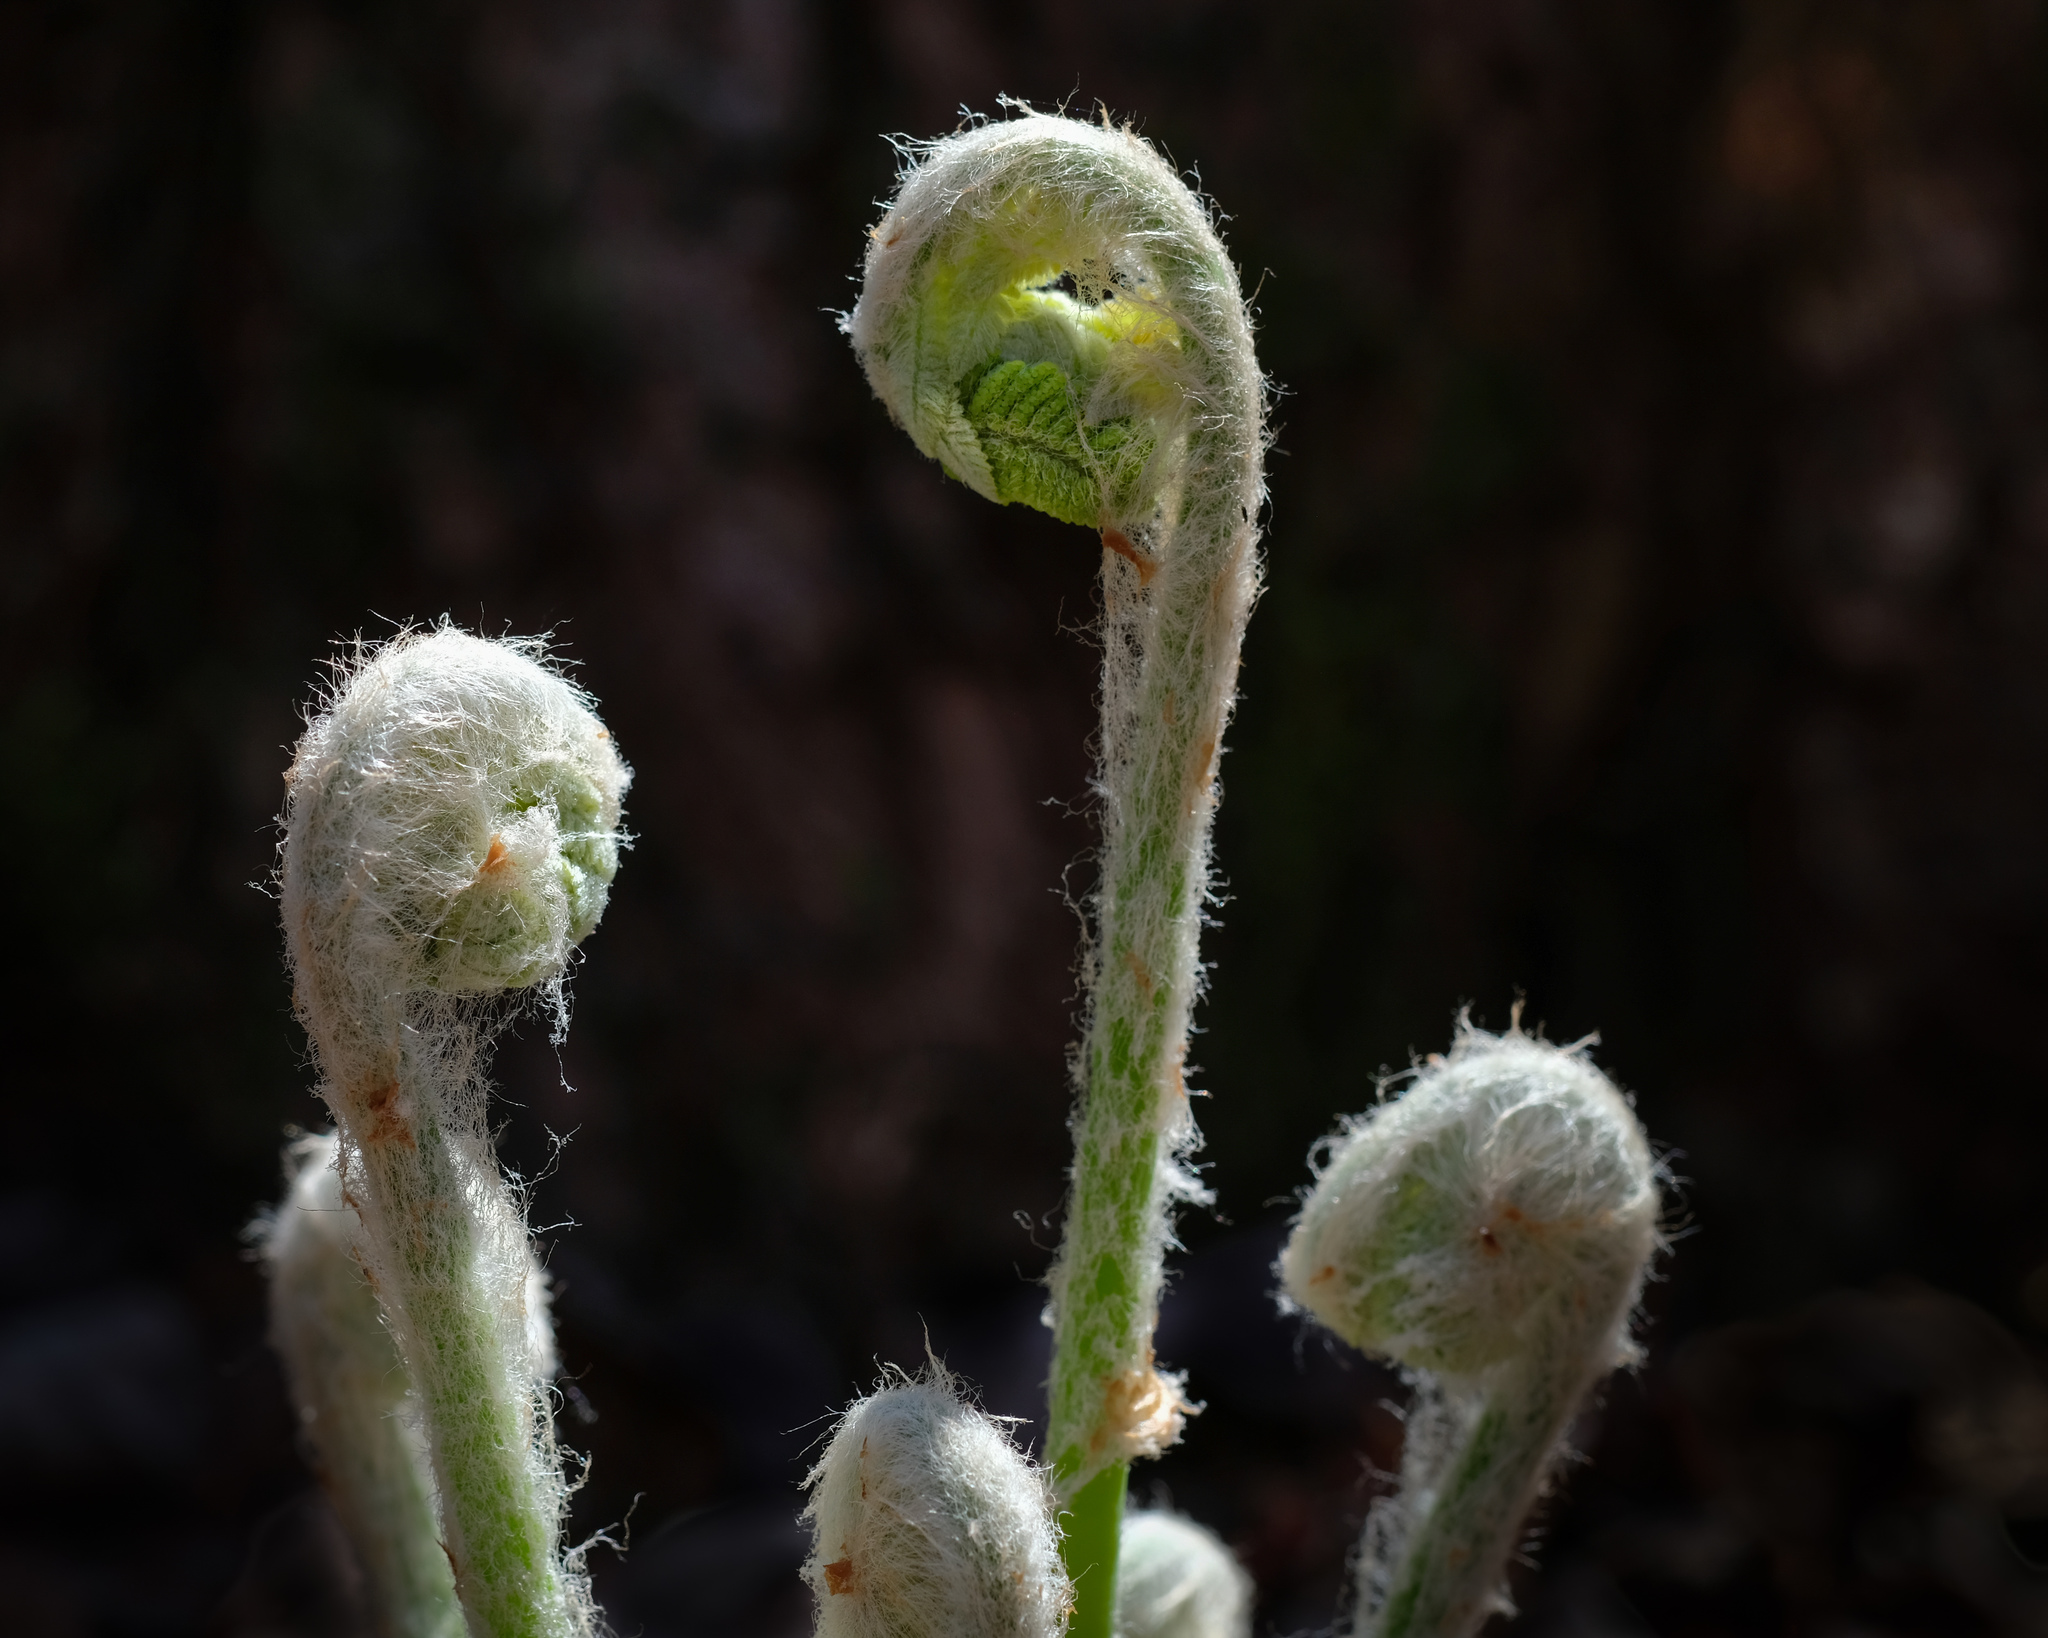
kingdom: Plantae
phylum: Tracheophyta
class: Polypodiopsida
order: Osmundales
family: Osmundaceae
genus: Claytosmunda
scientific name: Claytosmunda claytoniana
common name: Clayton's fern
